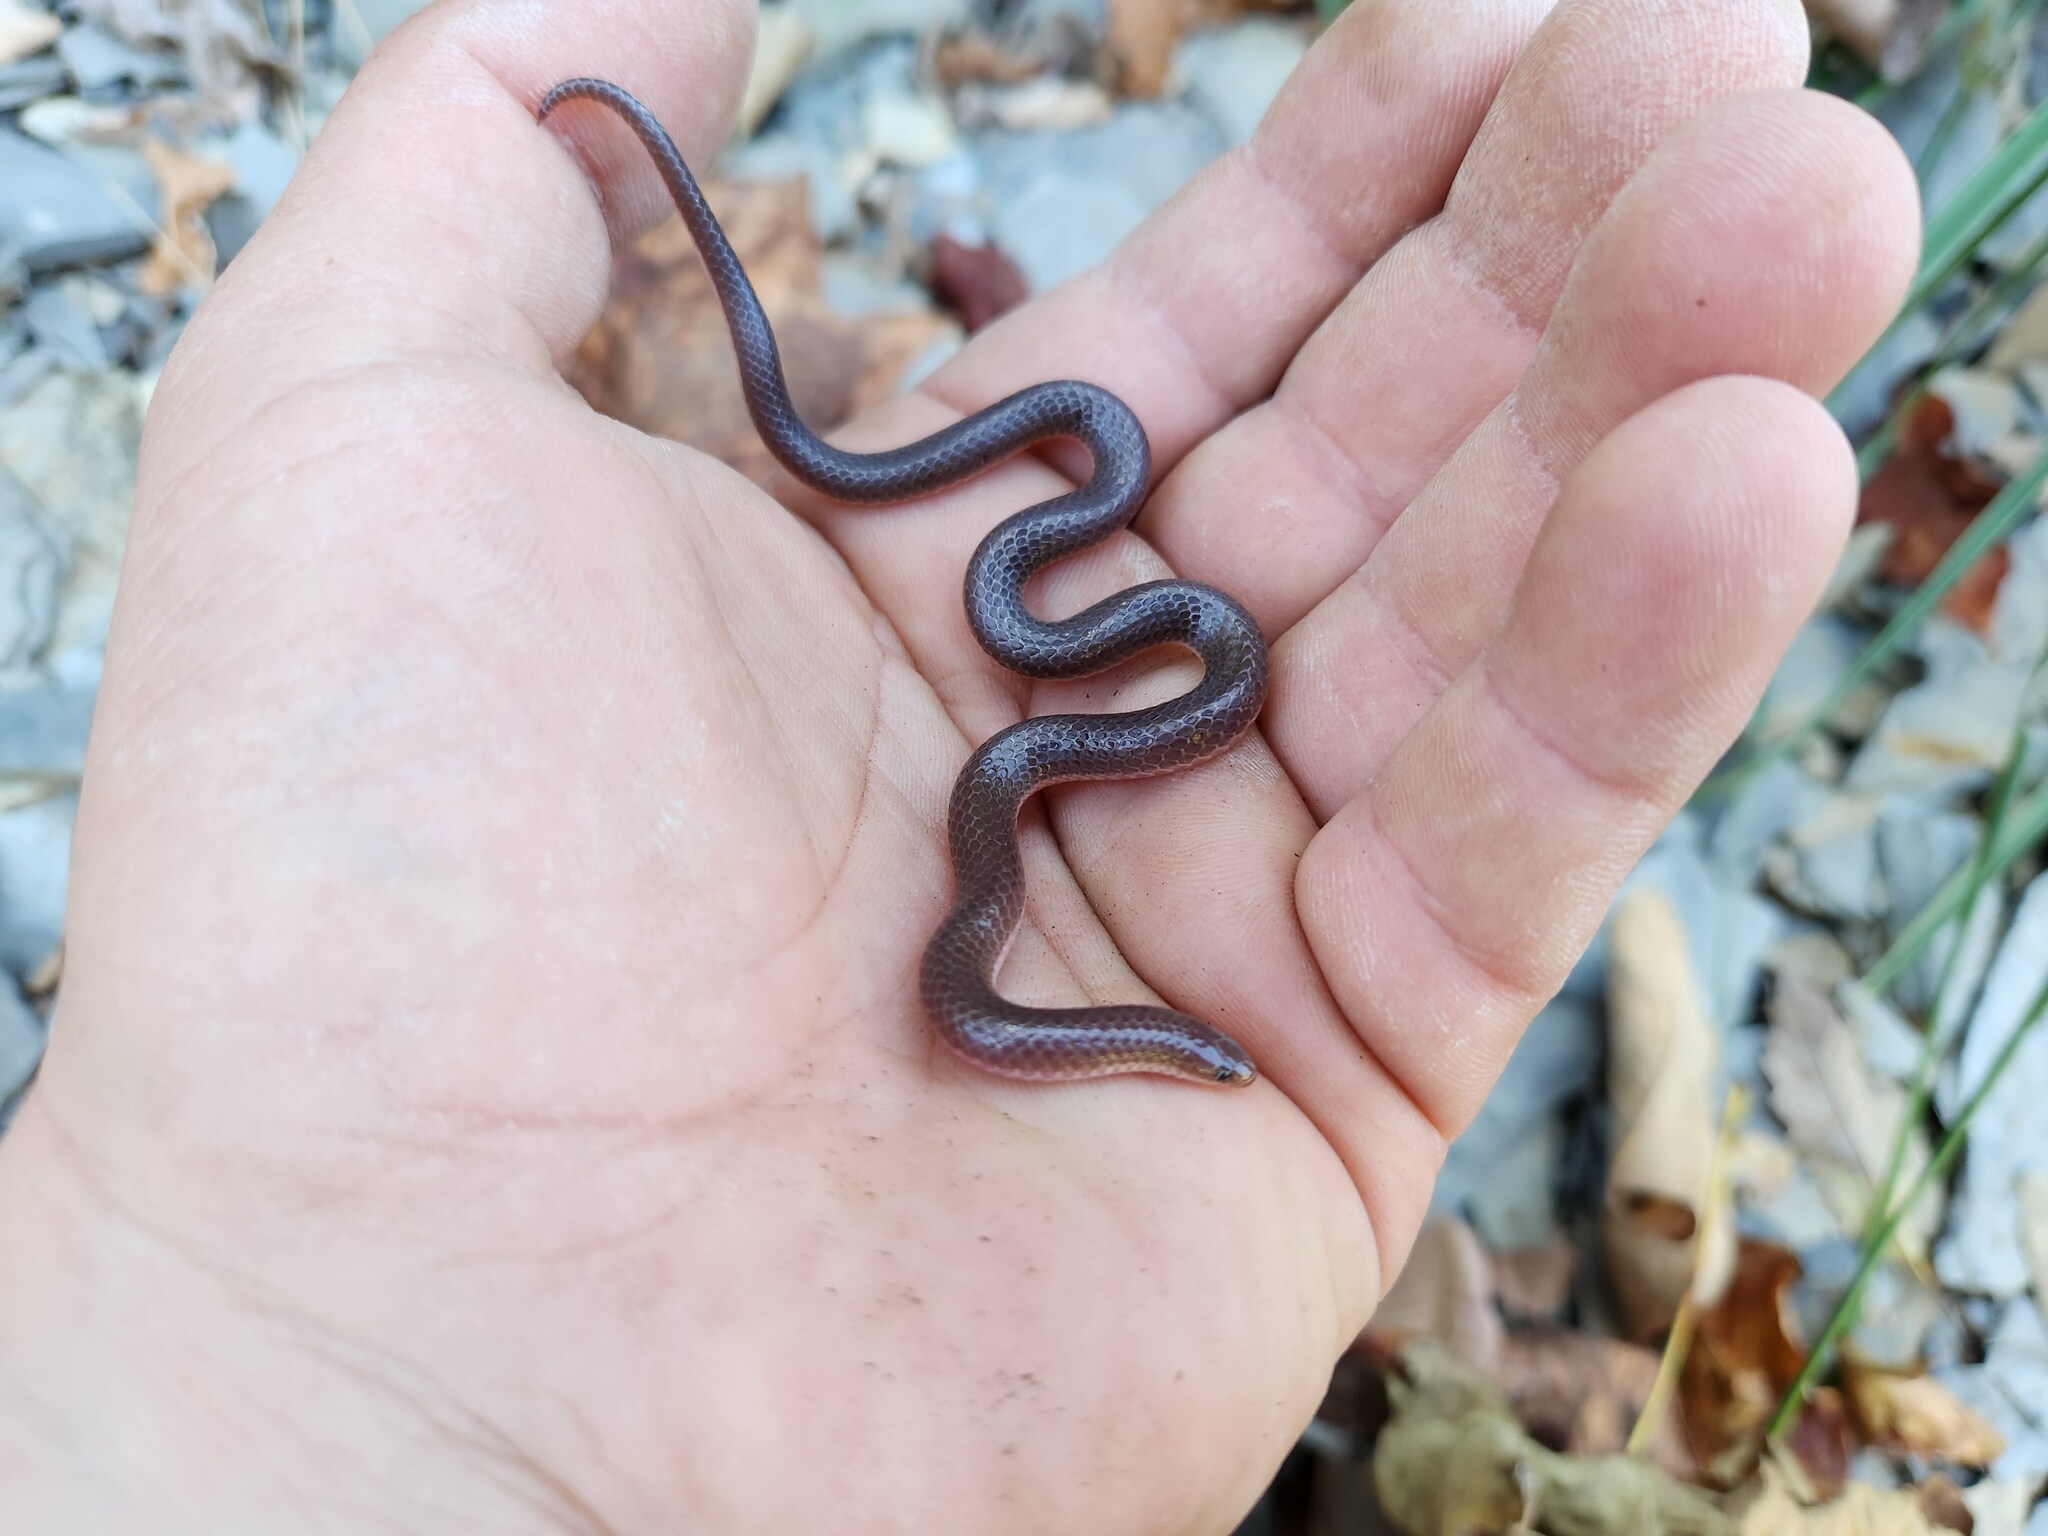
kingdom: Animalia
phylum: Chordata
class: Squamata
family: Colubridae
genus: Carphophis
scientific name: Carphophis amoenus
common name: Eastern worm snake
